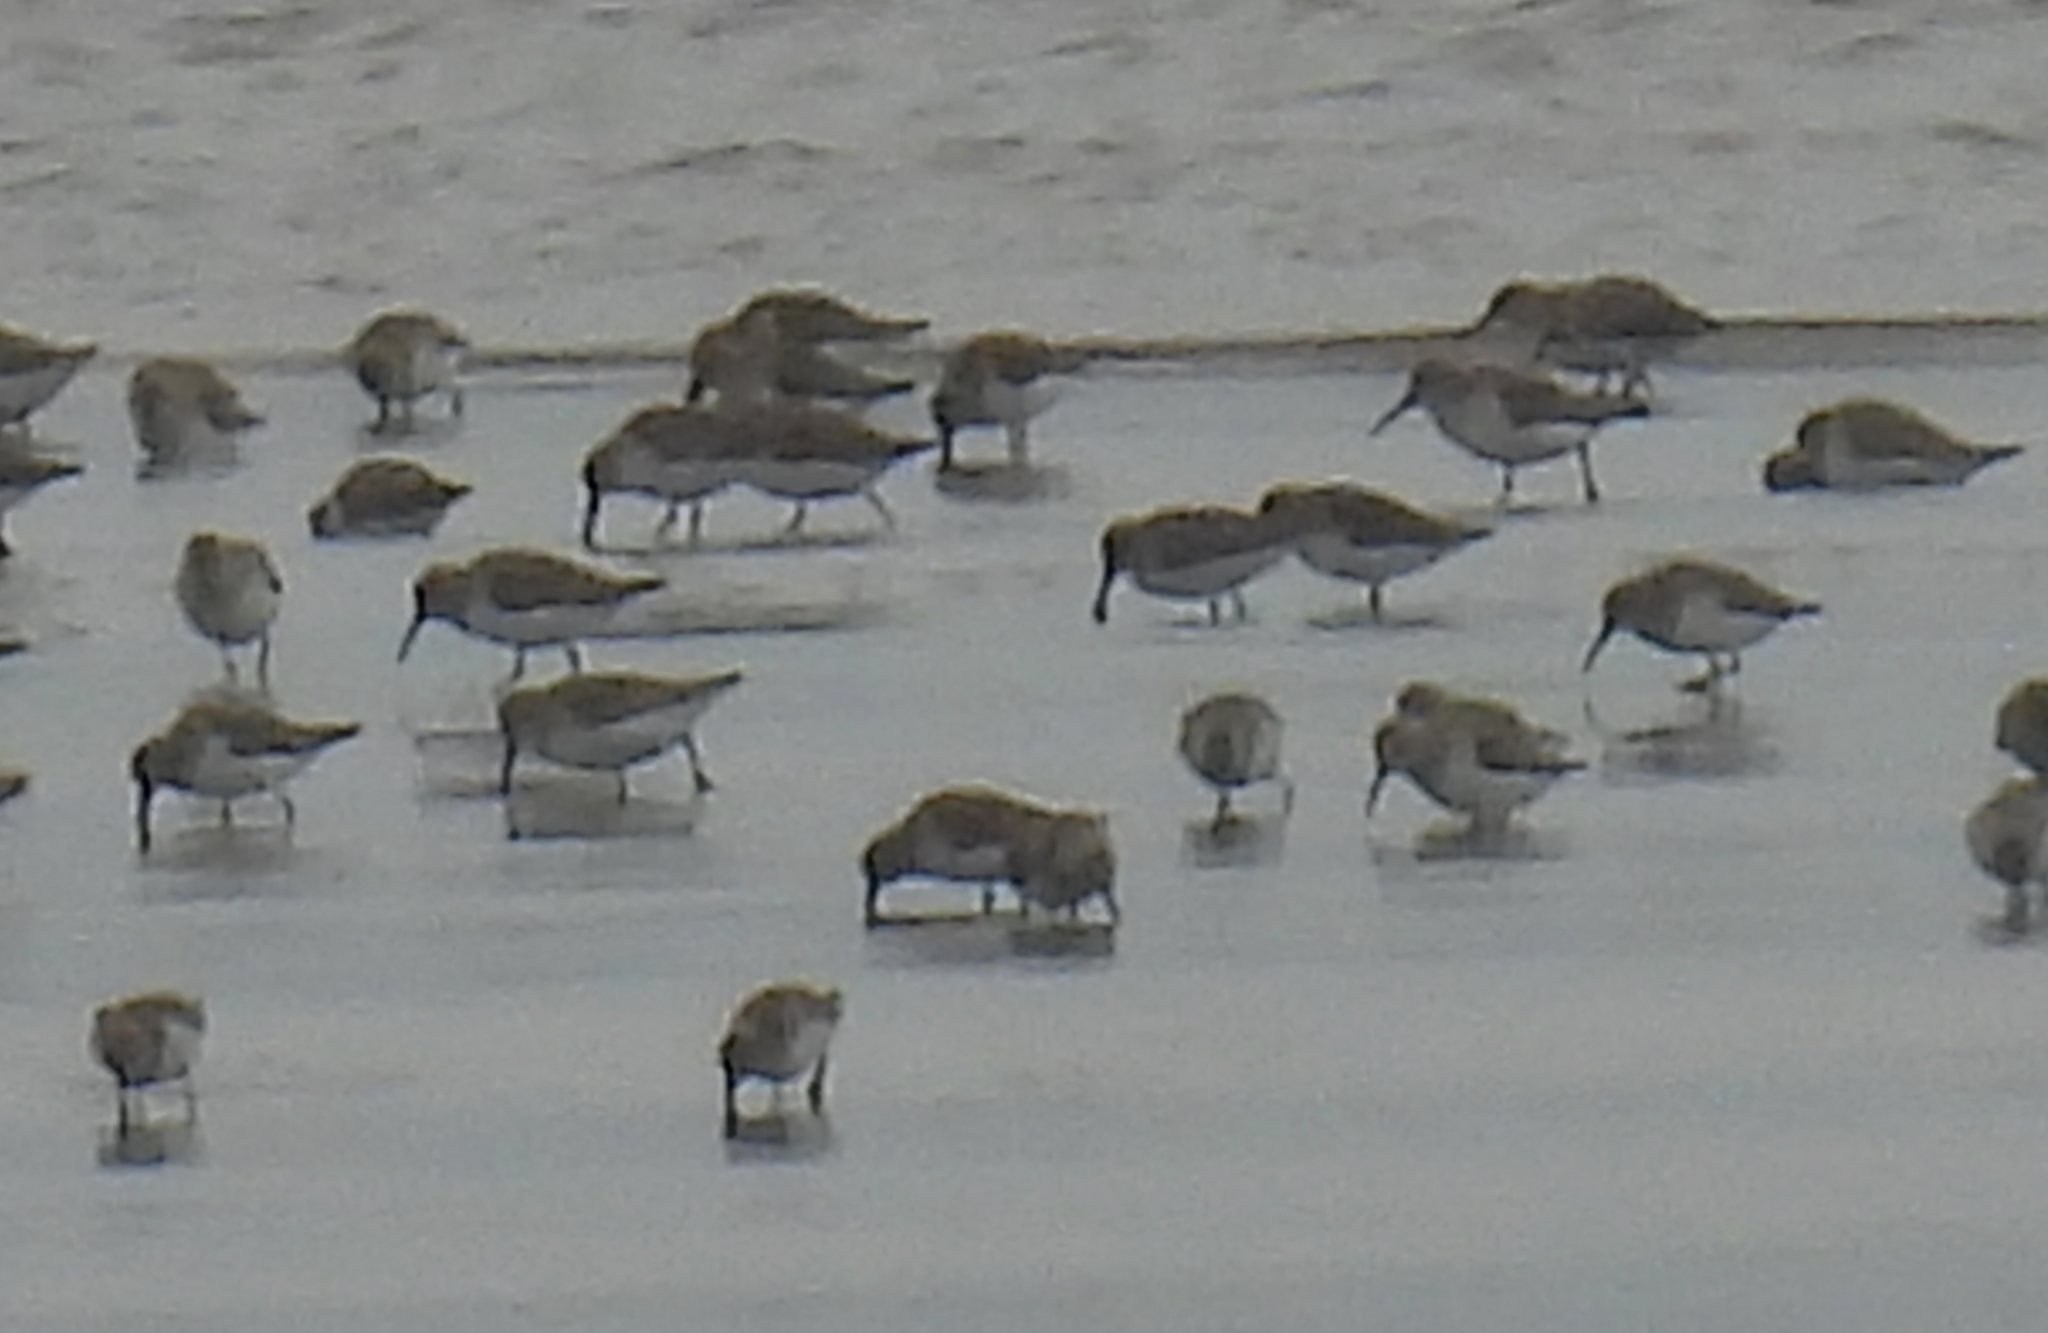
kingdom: Animalia
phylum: Chordata
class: Aves
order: Charadriiformes
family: Scolopacidae
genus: Calidris
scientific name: Calidris alpina
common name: Dunlin
